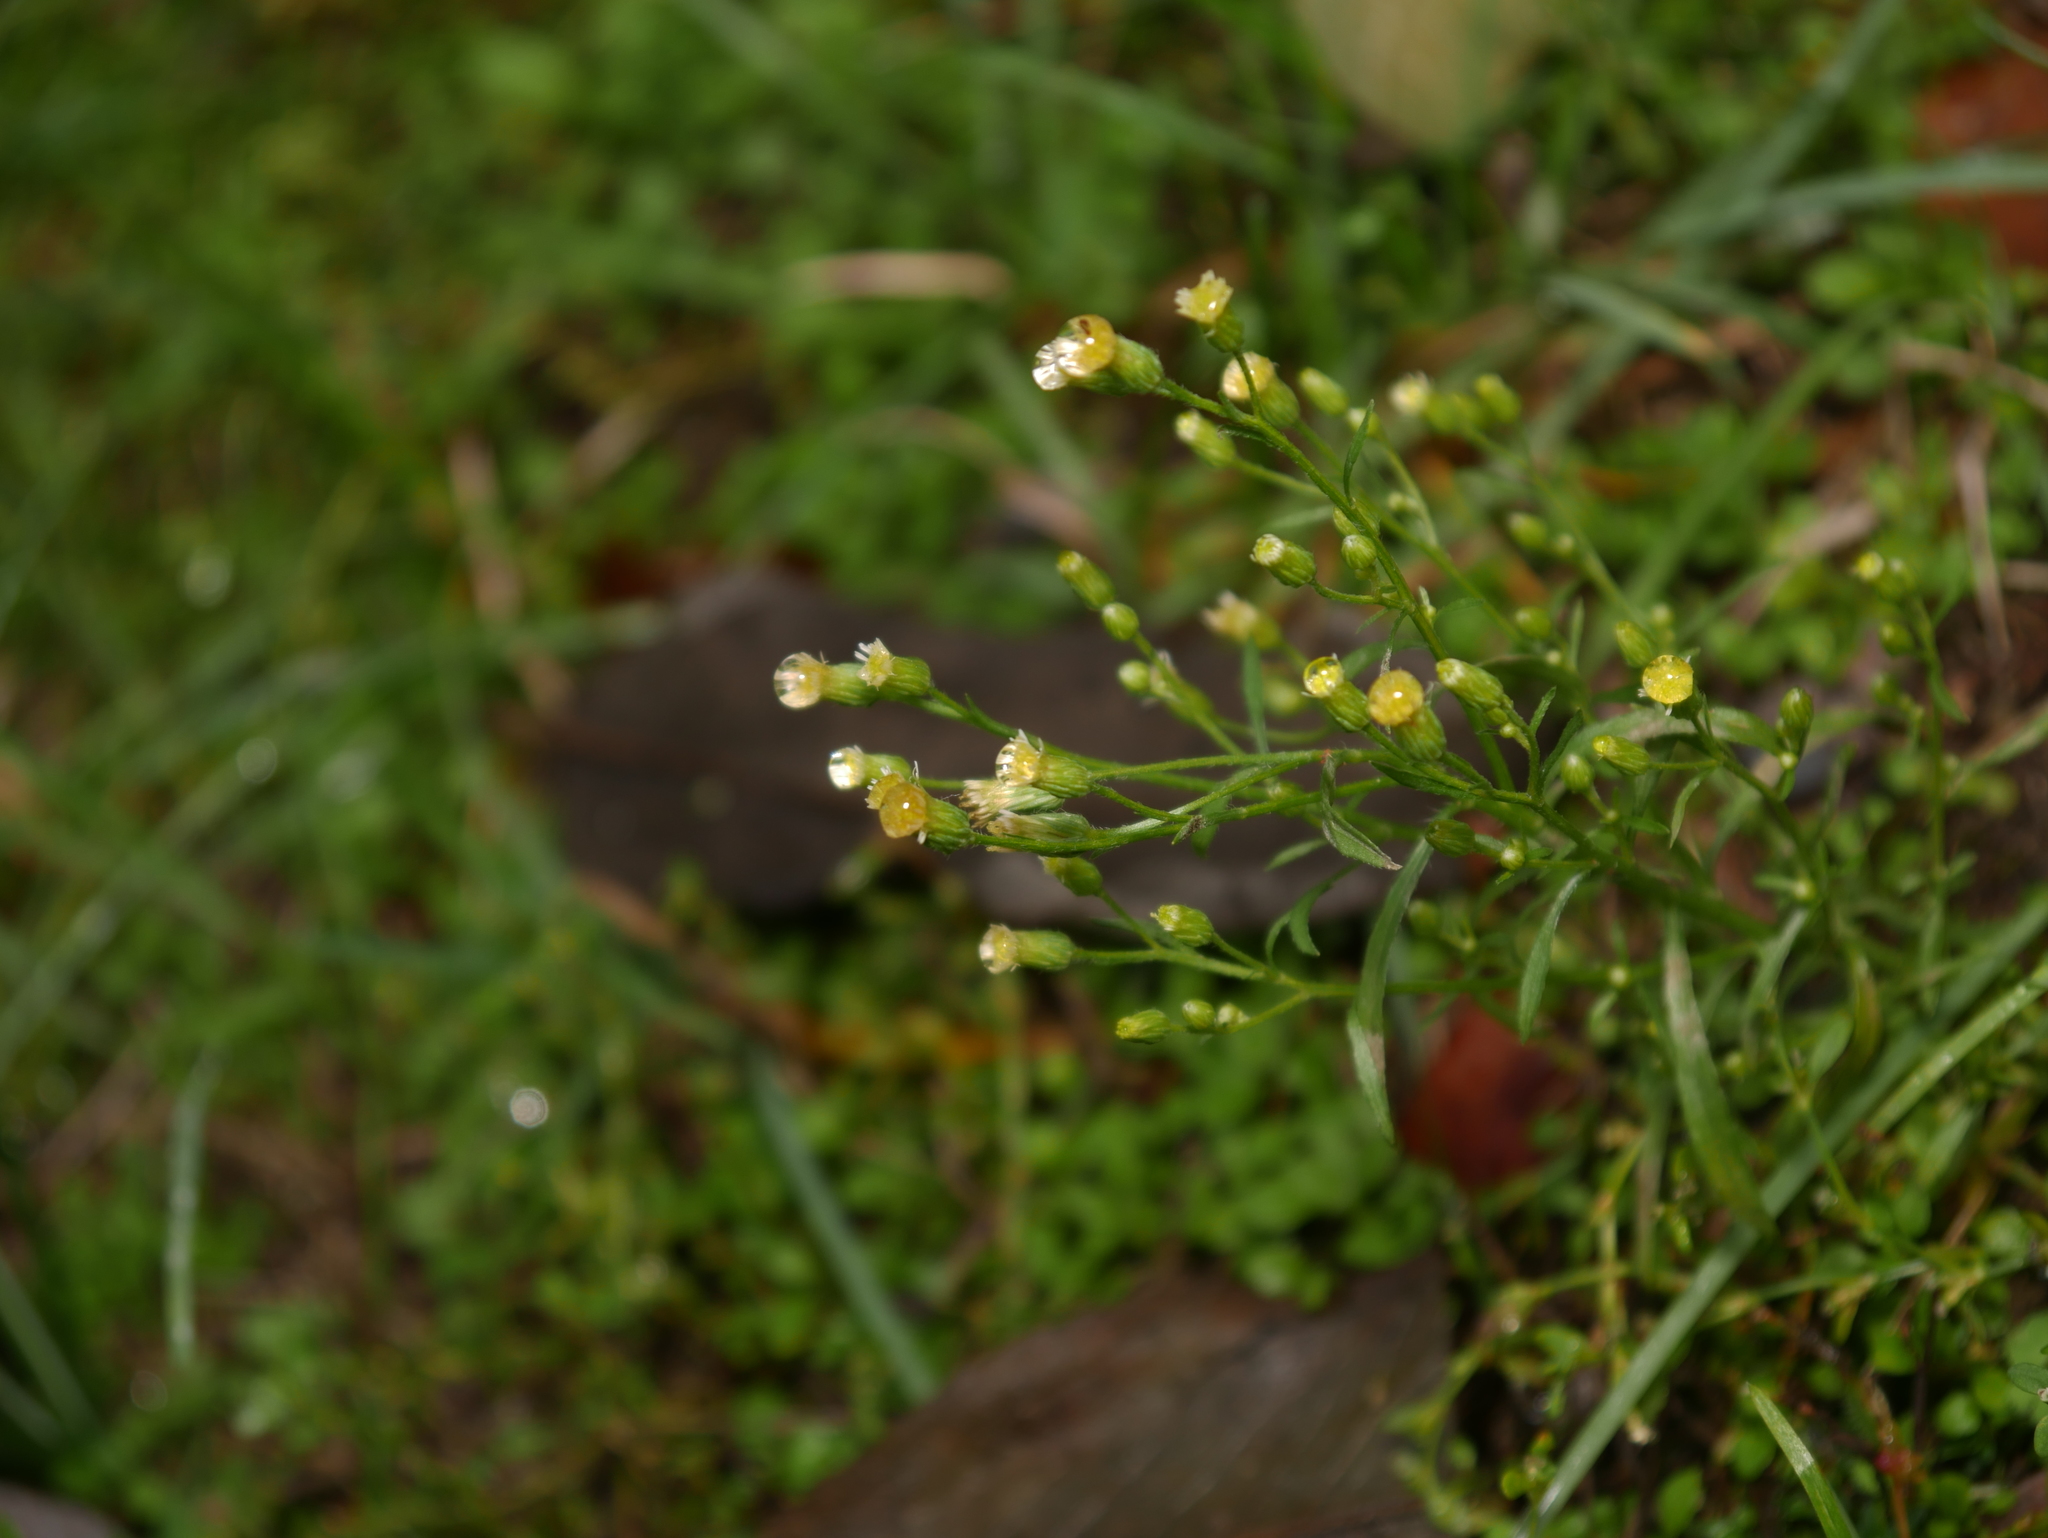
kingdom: Plantae
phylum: Tracheophyta
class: Magnoliopsida
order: Asterales
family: Asteraceae
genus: Erigeron
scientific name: Erigeron canadensis
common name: Canadian fleabane
